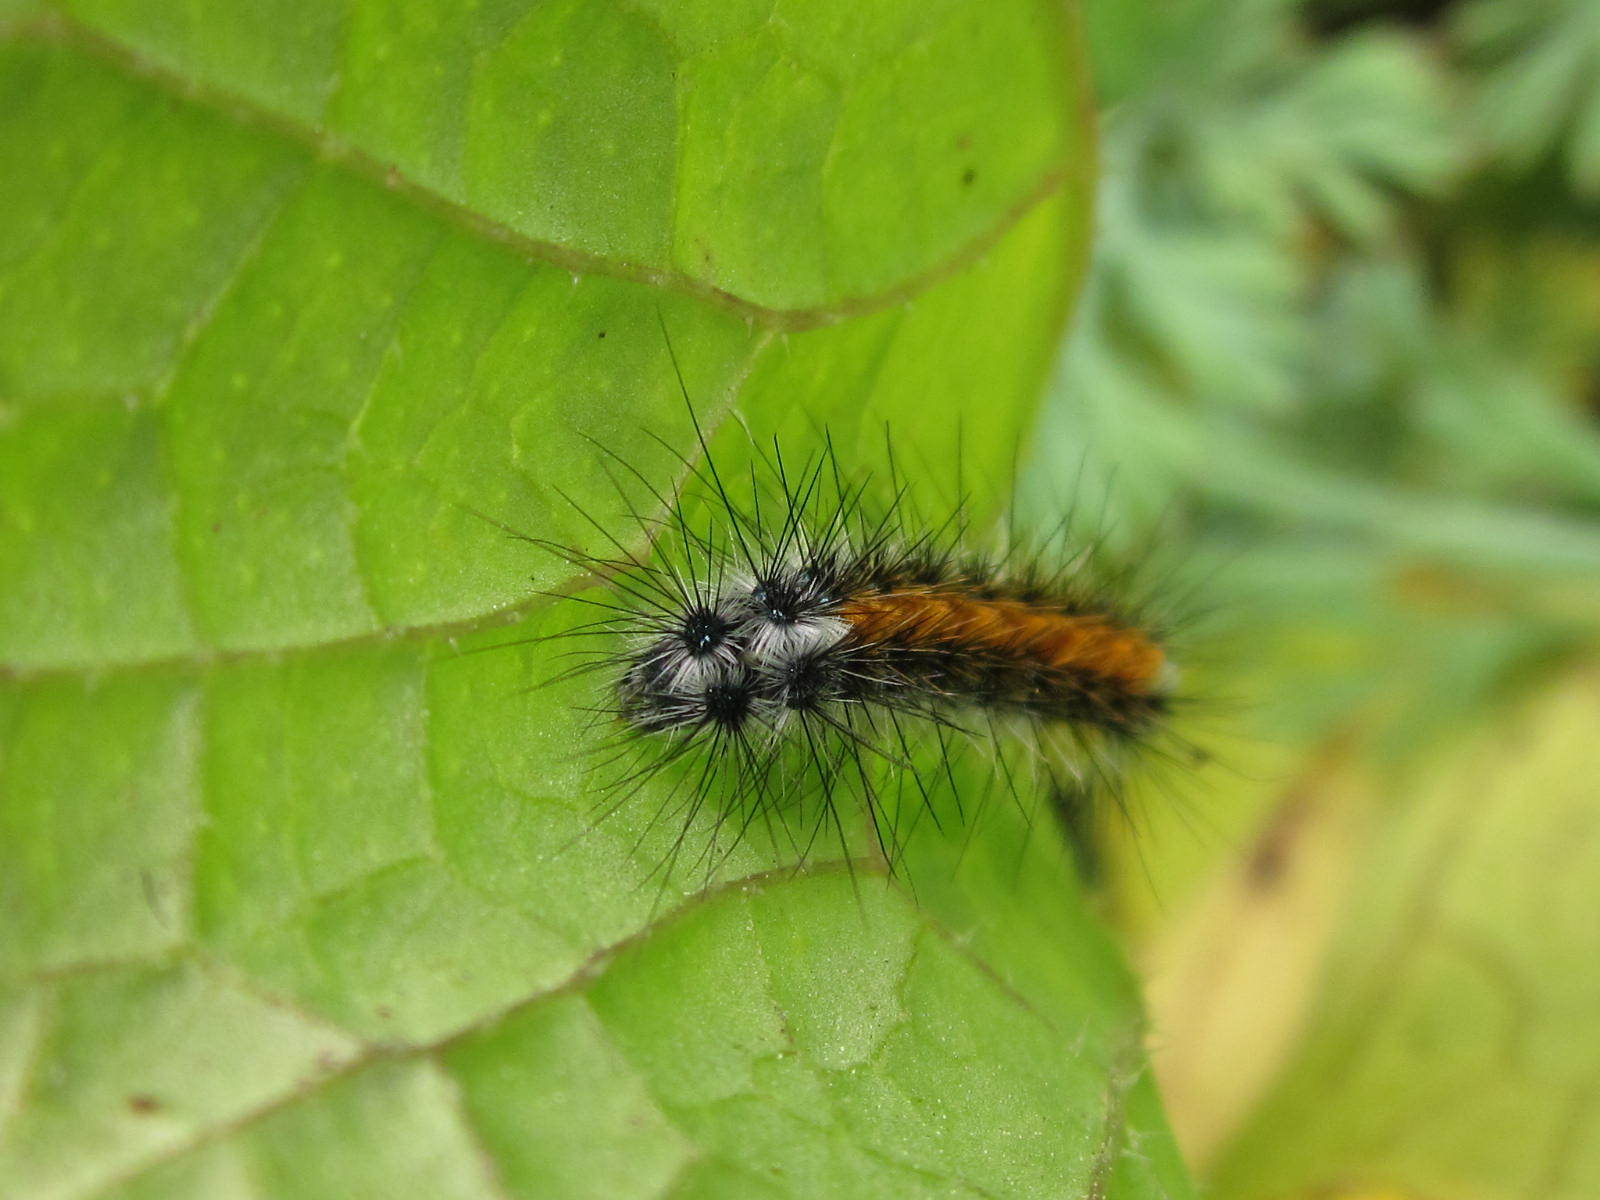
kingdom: Animalia
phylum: Arthropoda
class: Insecta
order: Lepidoptera
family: Erebidae
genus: Chilesia
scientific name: Chilesia
